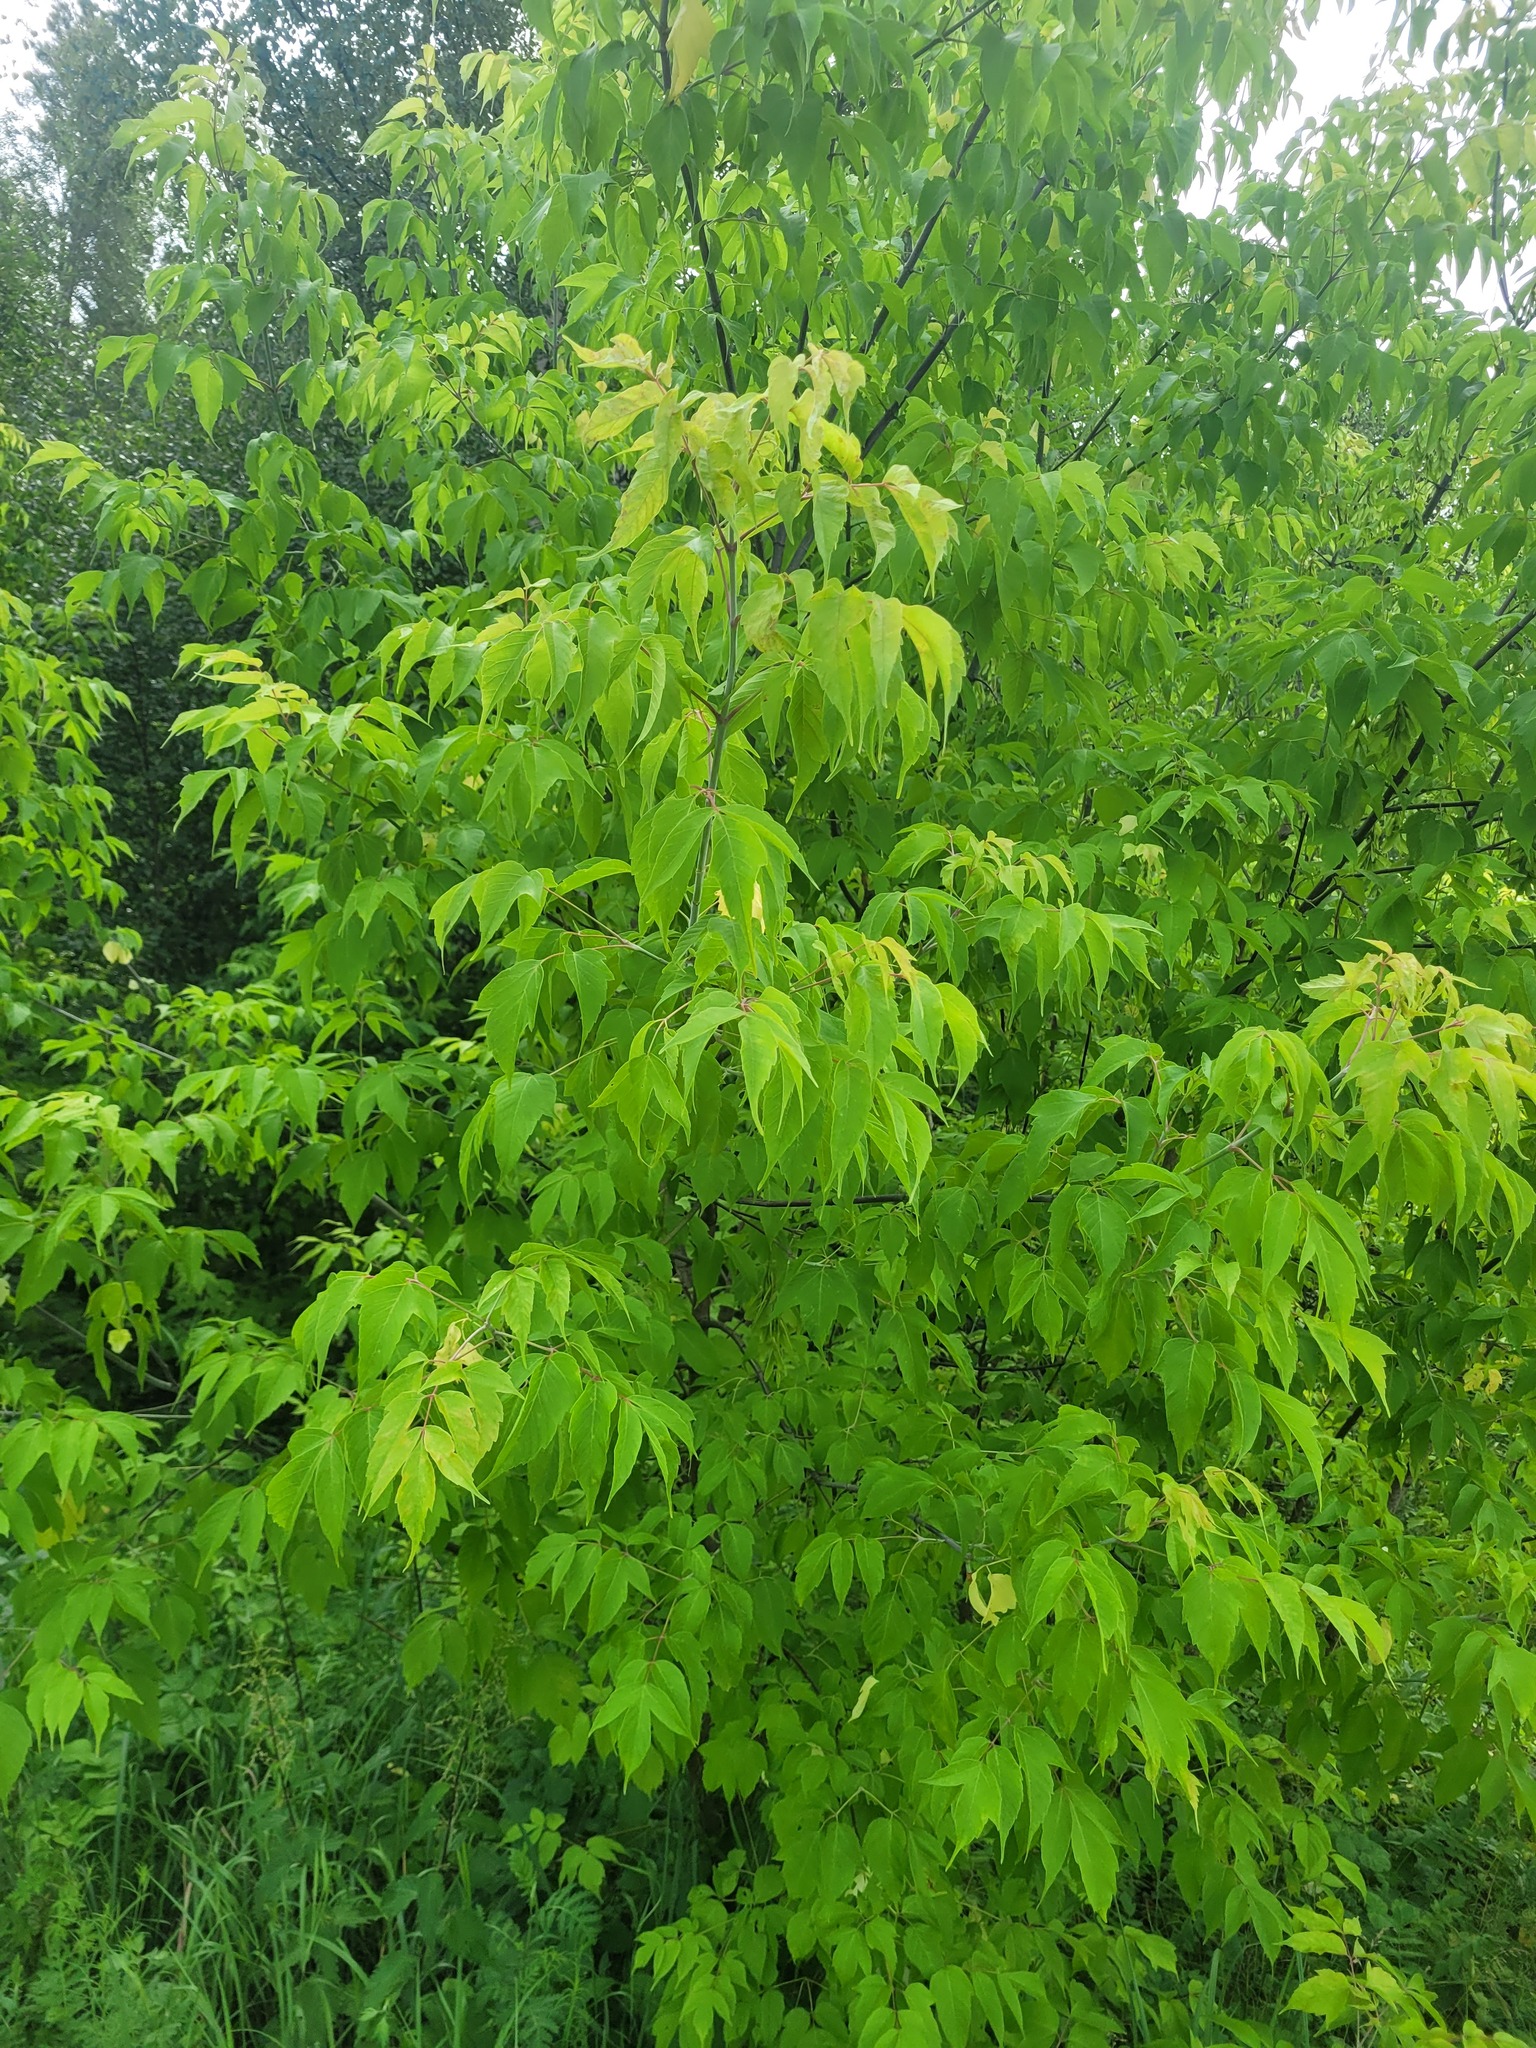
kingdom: Plantae
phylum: Tracheophyta
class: Magnoliopsida
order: Sapindales
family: Sapindaceae
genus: Acer
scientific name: Acer negundo
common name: Ashleaf maple
